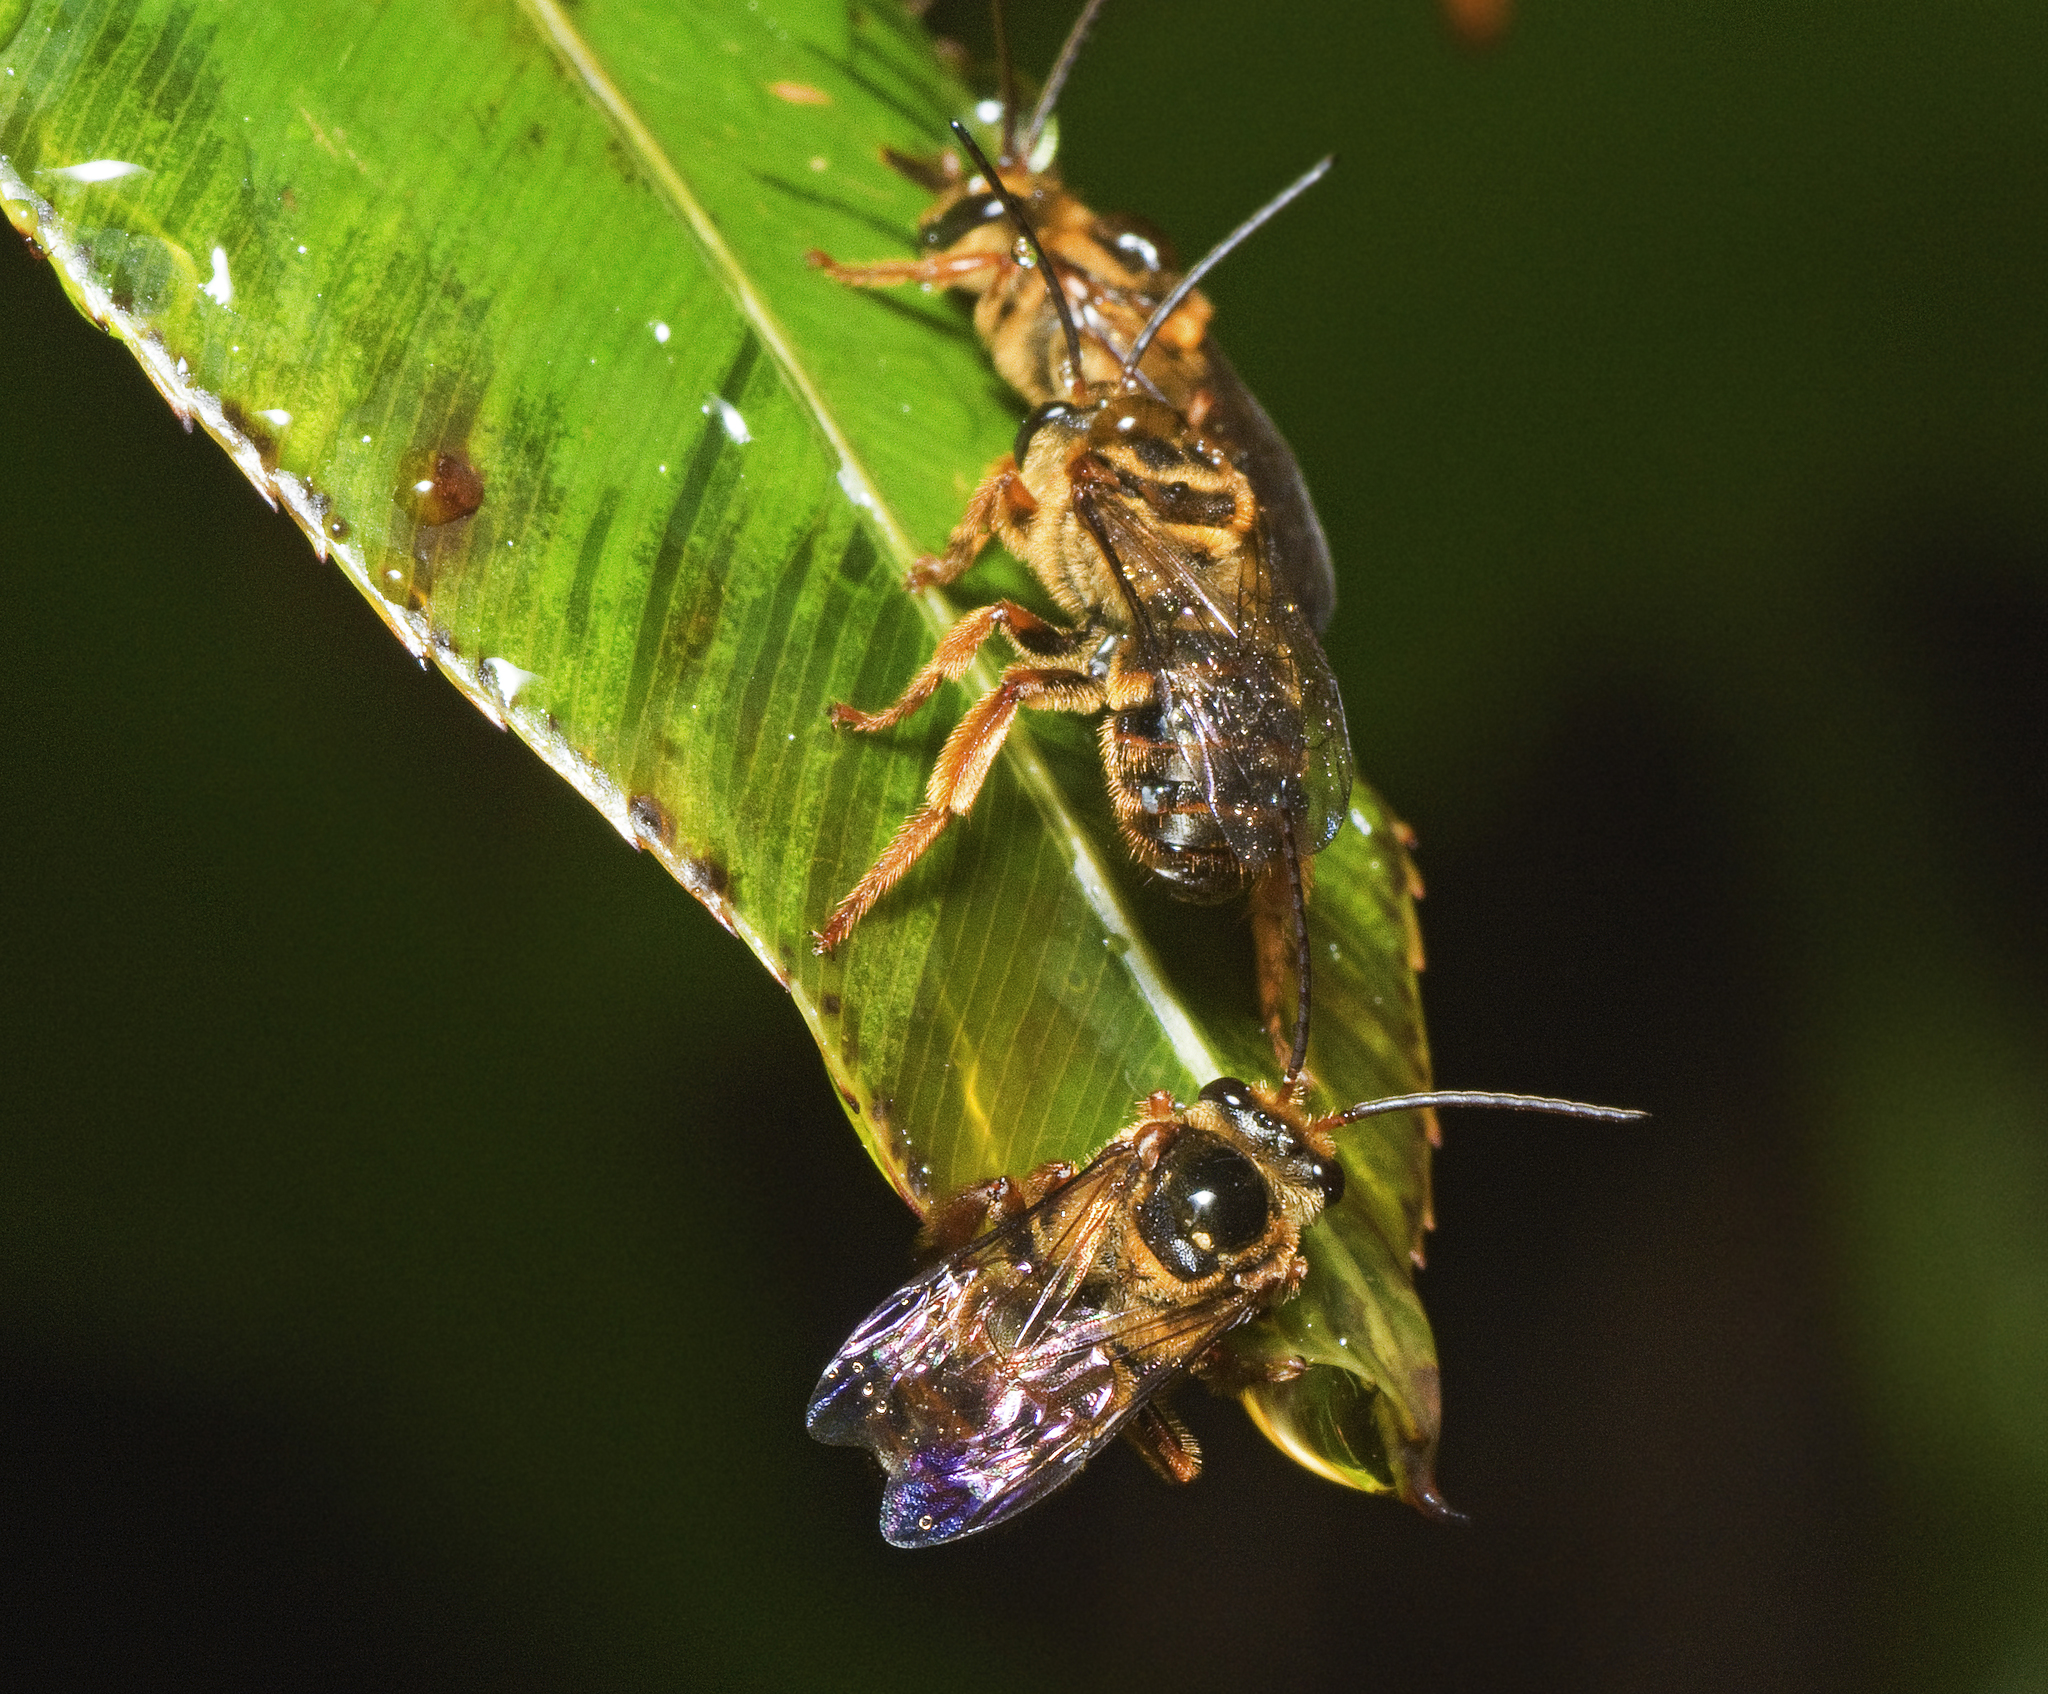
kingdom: Animalia
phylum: Arthropoda
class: Insecta
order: Hymenoptera
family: Halictidae
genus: Mellitidia
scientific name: Mellitidia tomentifera
